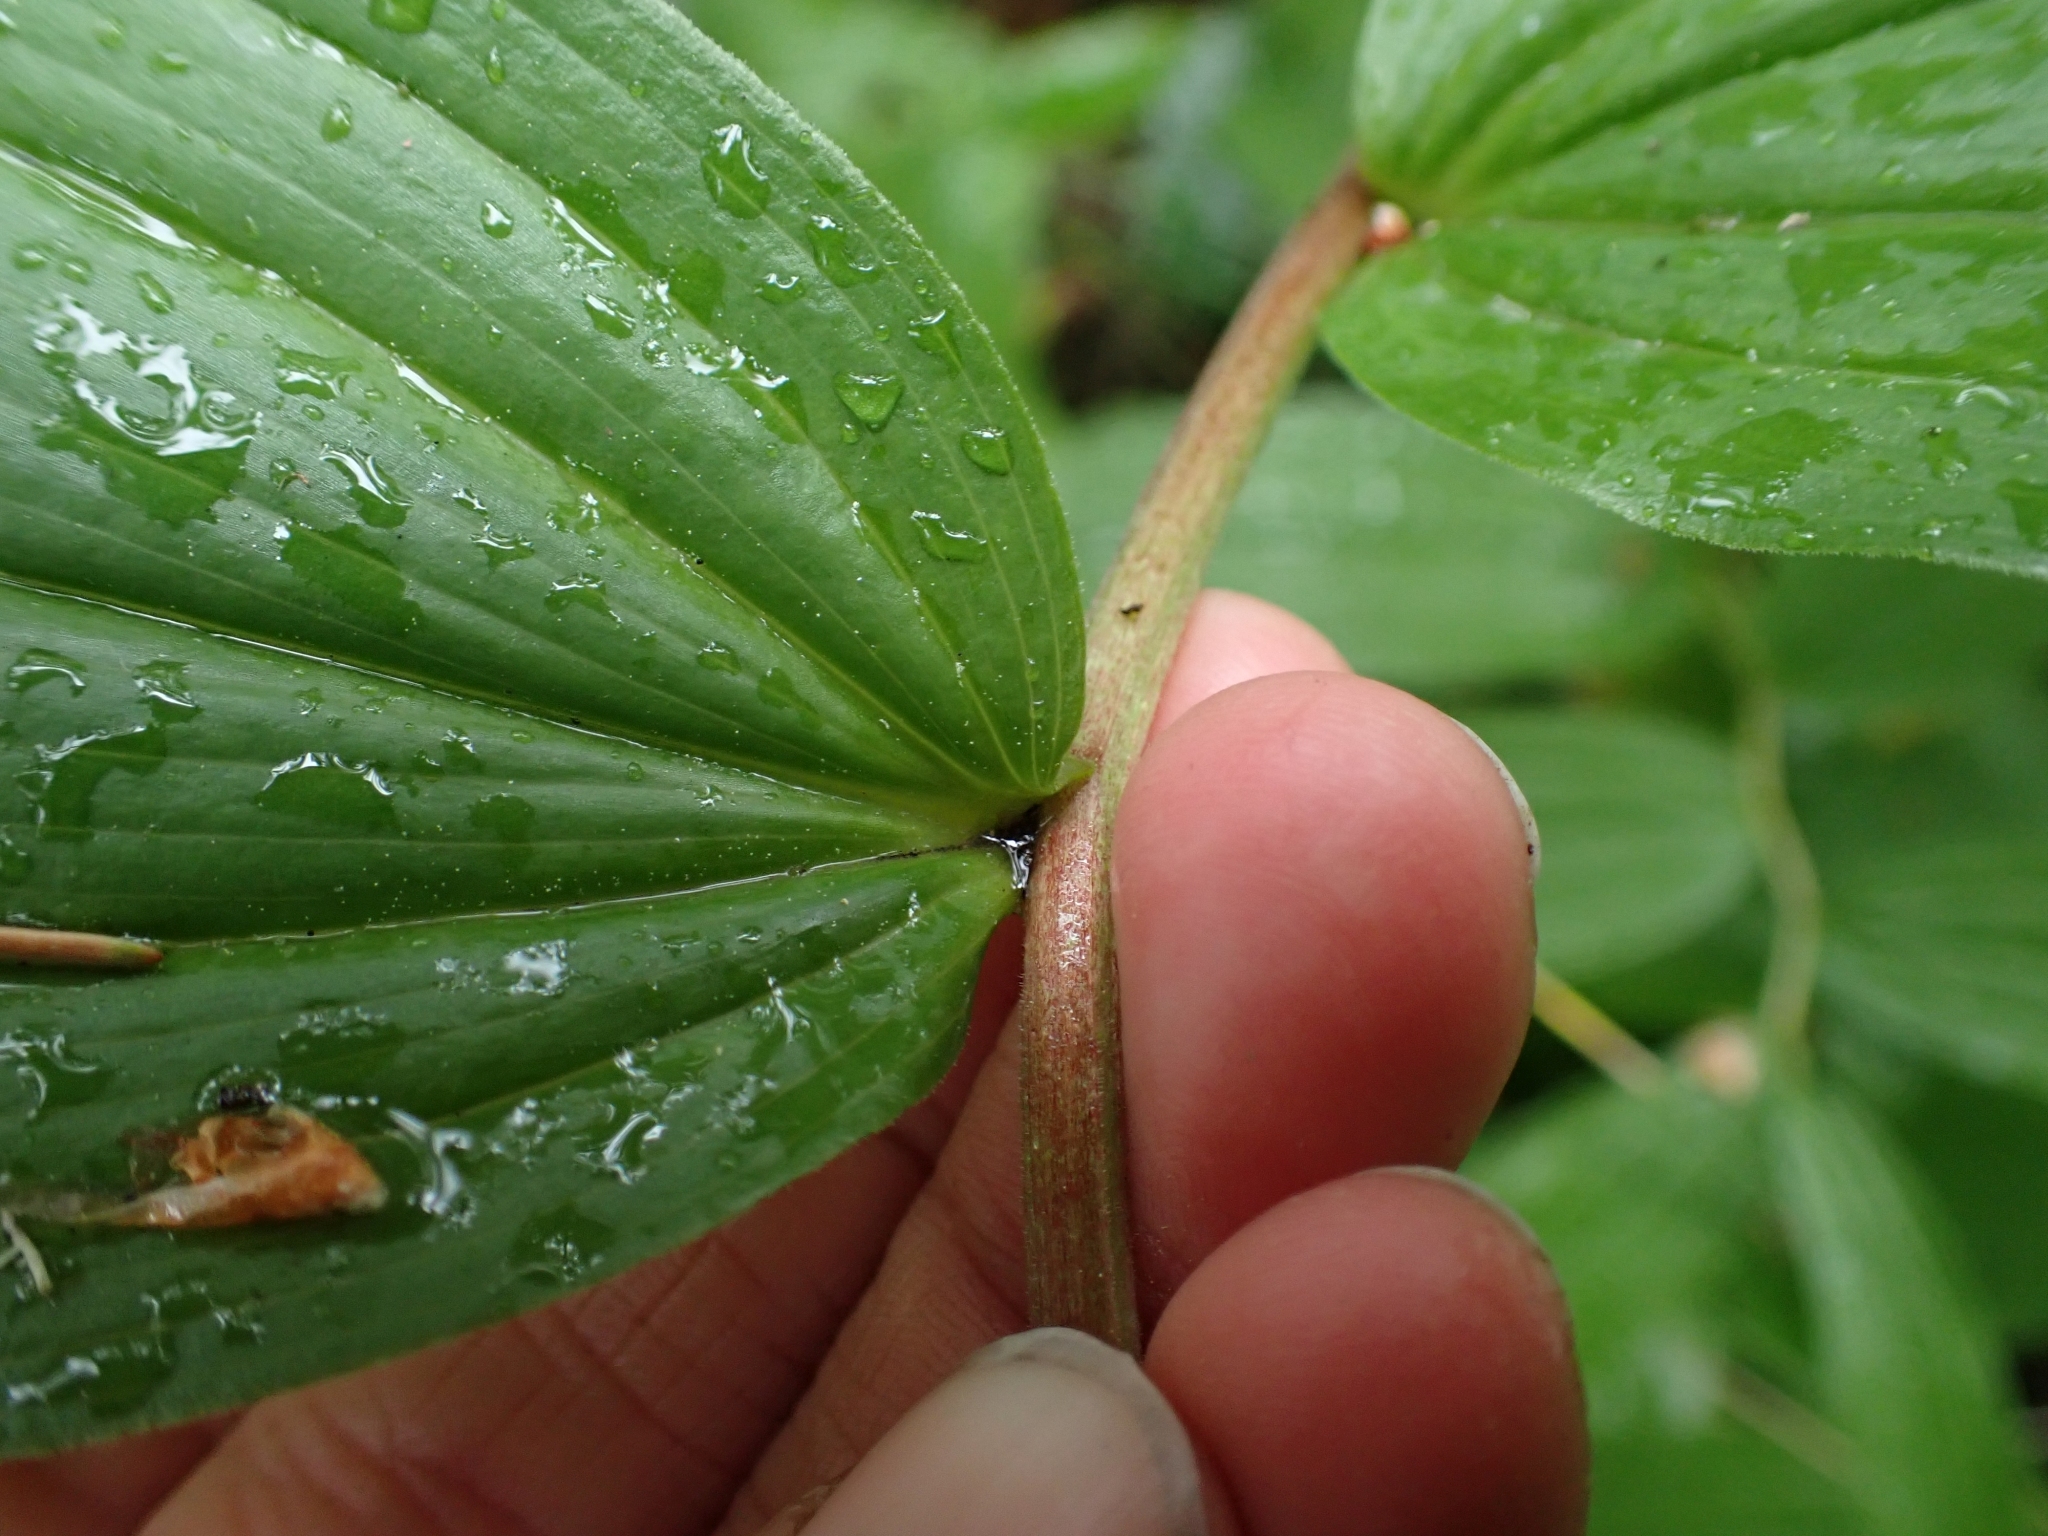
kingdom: Plantae
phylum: Tracheophyta
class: Liliopsida
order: Asparagales
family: Asparagaceae
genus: Maianthemum
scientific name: Maianthemum racemosum
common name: False spikenard
